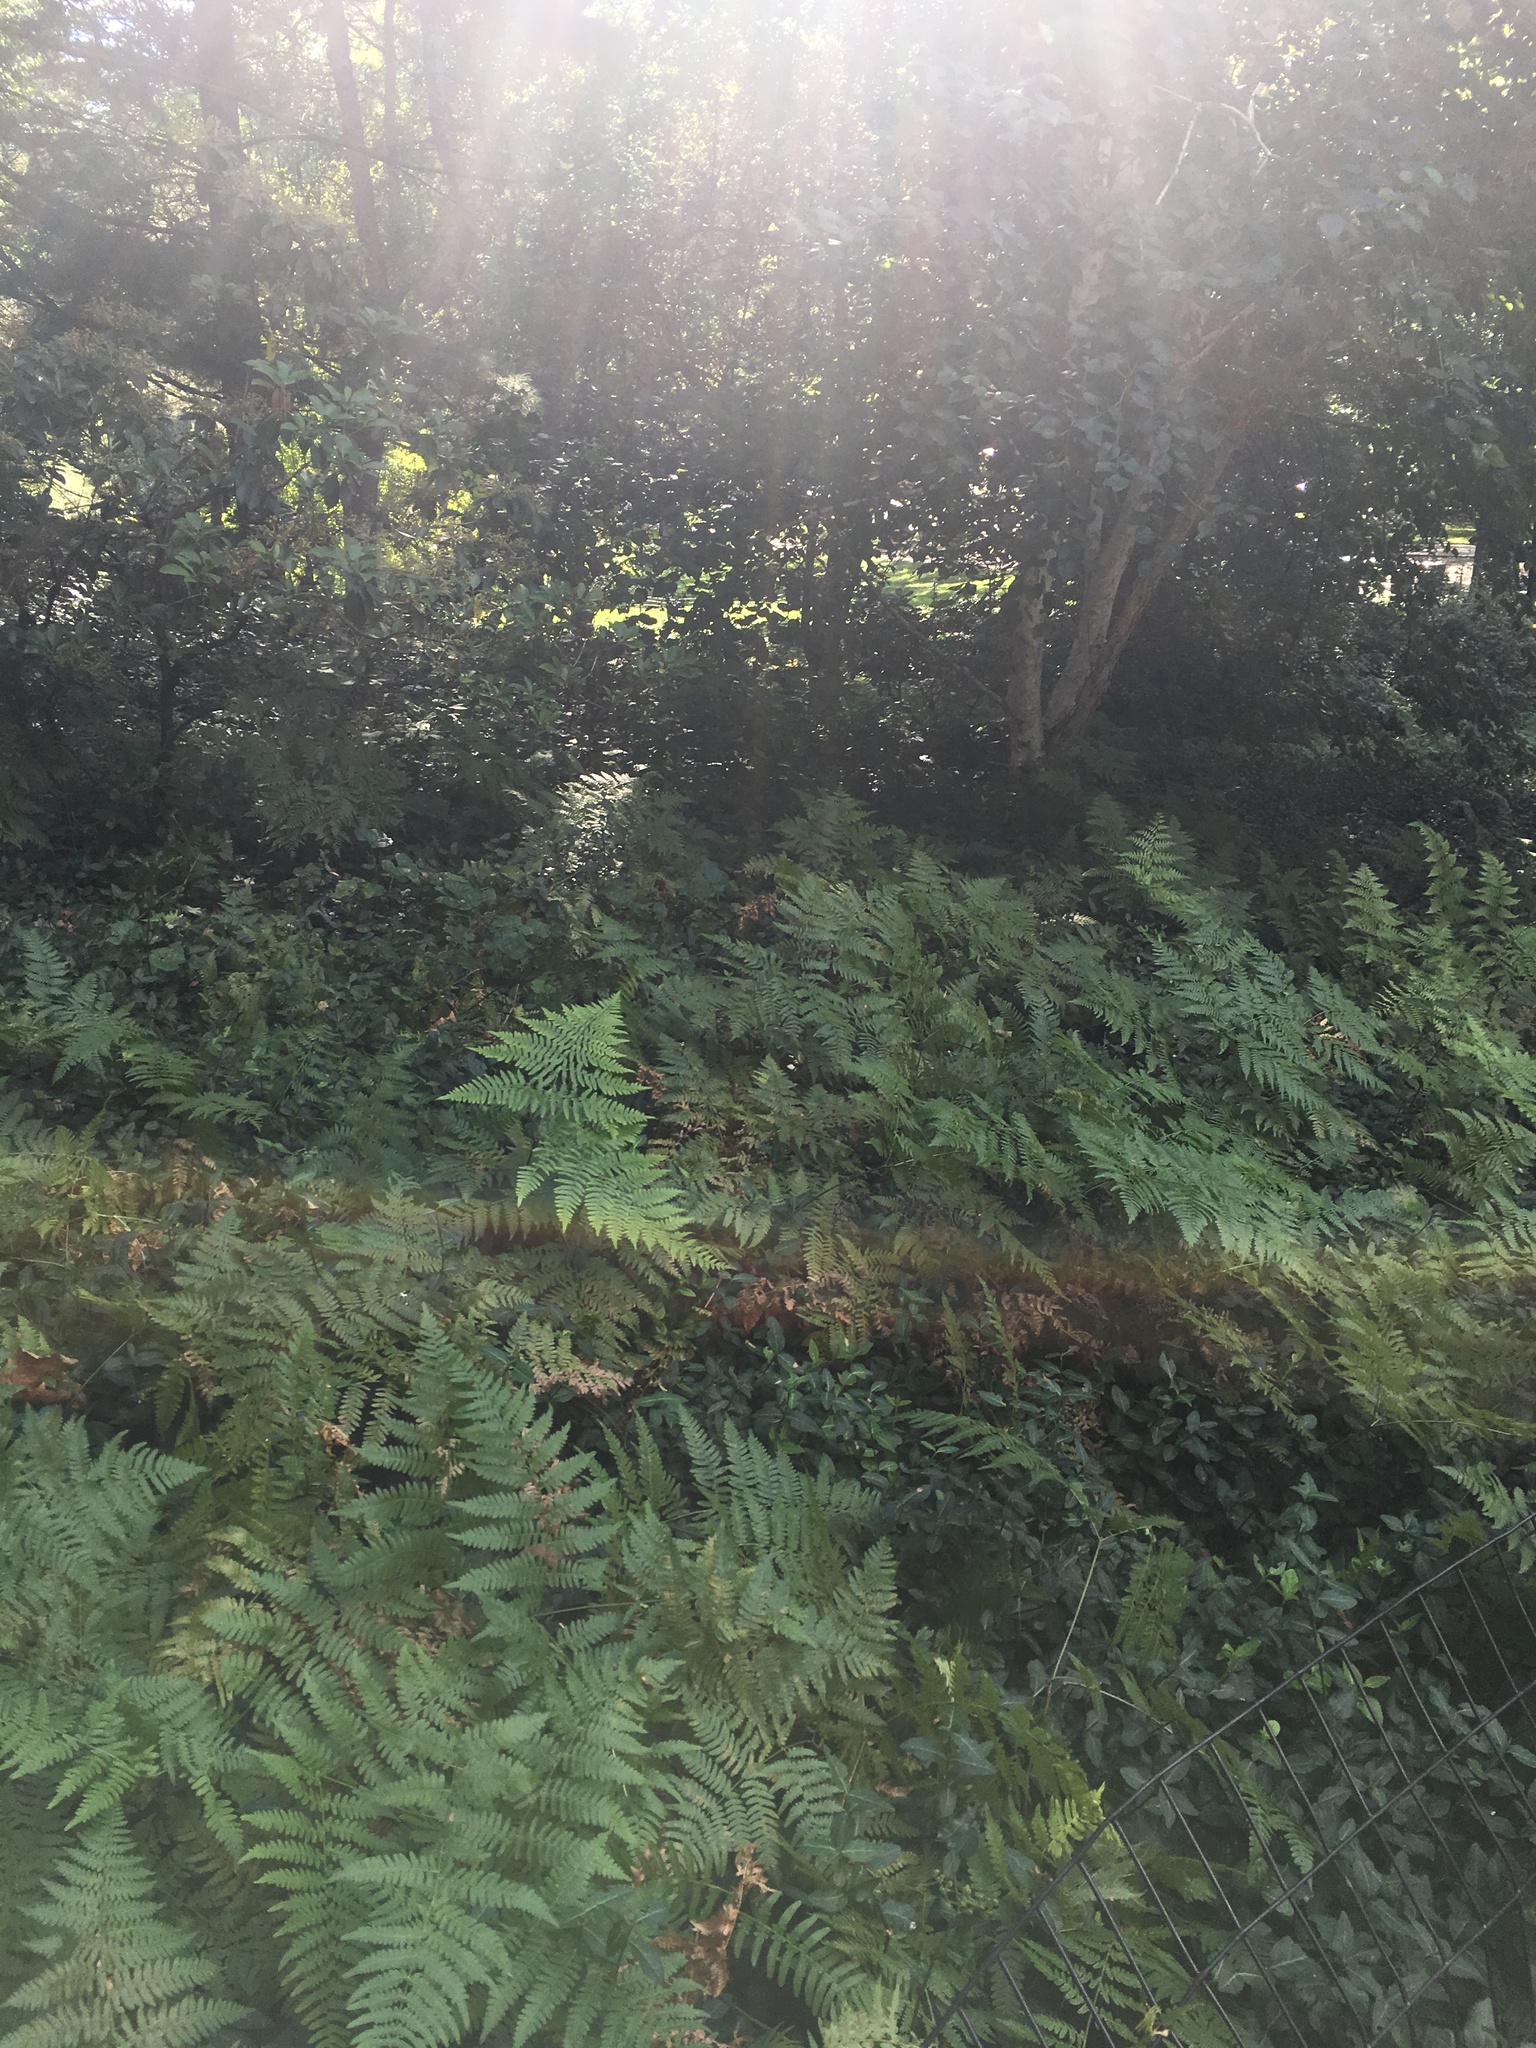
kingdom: Plantae
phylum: Tracheophyta
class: Polypodiopsida
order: Polypodiales
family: Dennstaedtiaceae
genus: Pteridium
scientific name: Pteridium aquilinum
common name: Bracken
